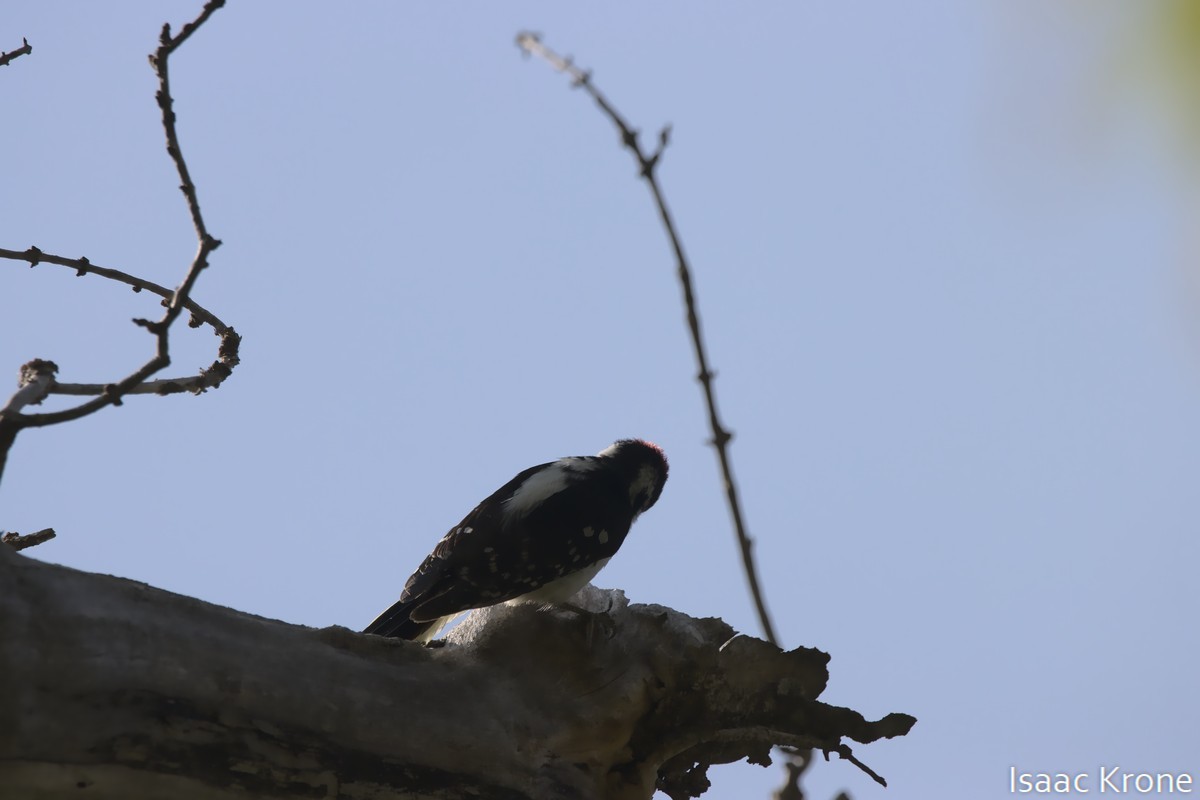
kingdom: Animalia
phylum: Chordata
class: Aves
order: Piciformes
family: Picidae
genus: Dryobates
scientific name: Dryobates pubescens
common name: Downy woodpecker
